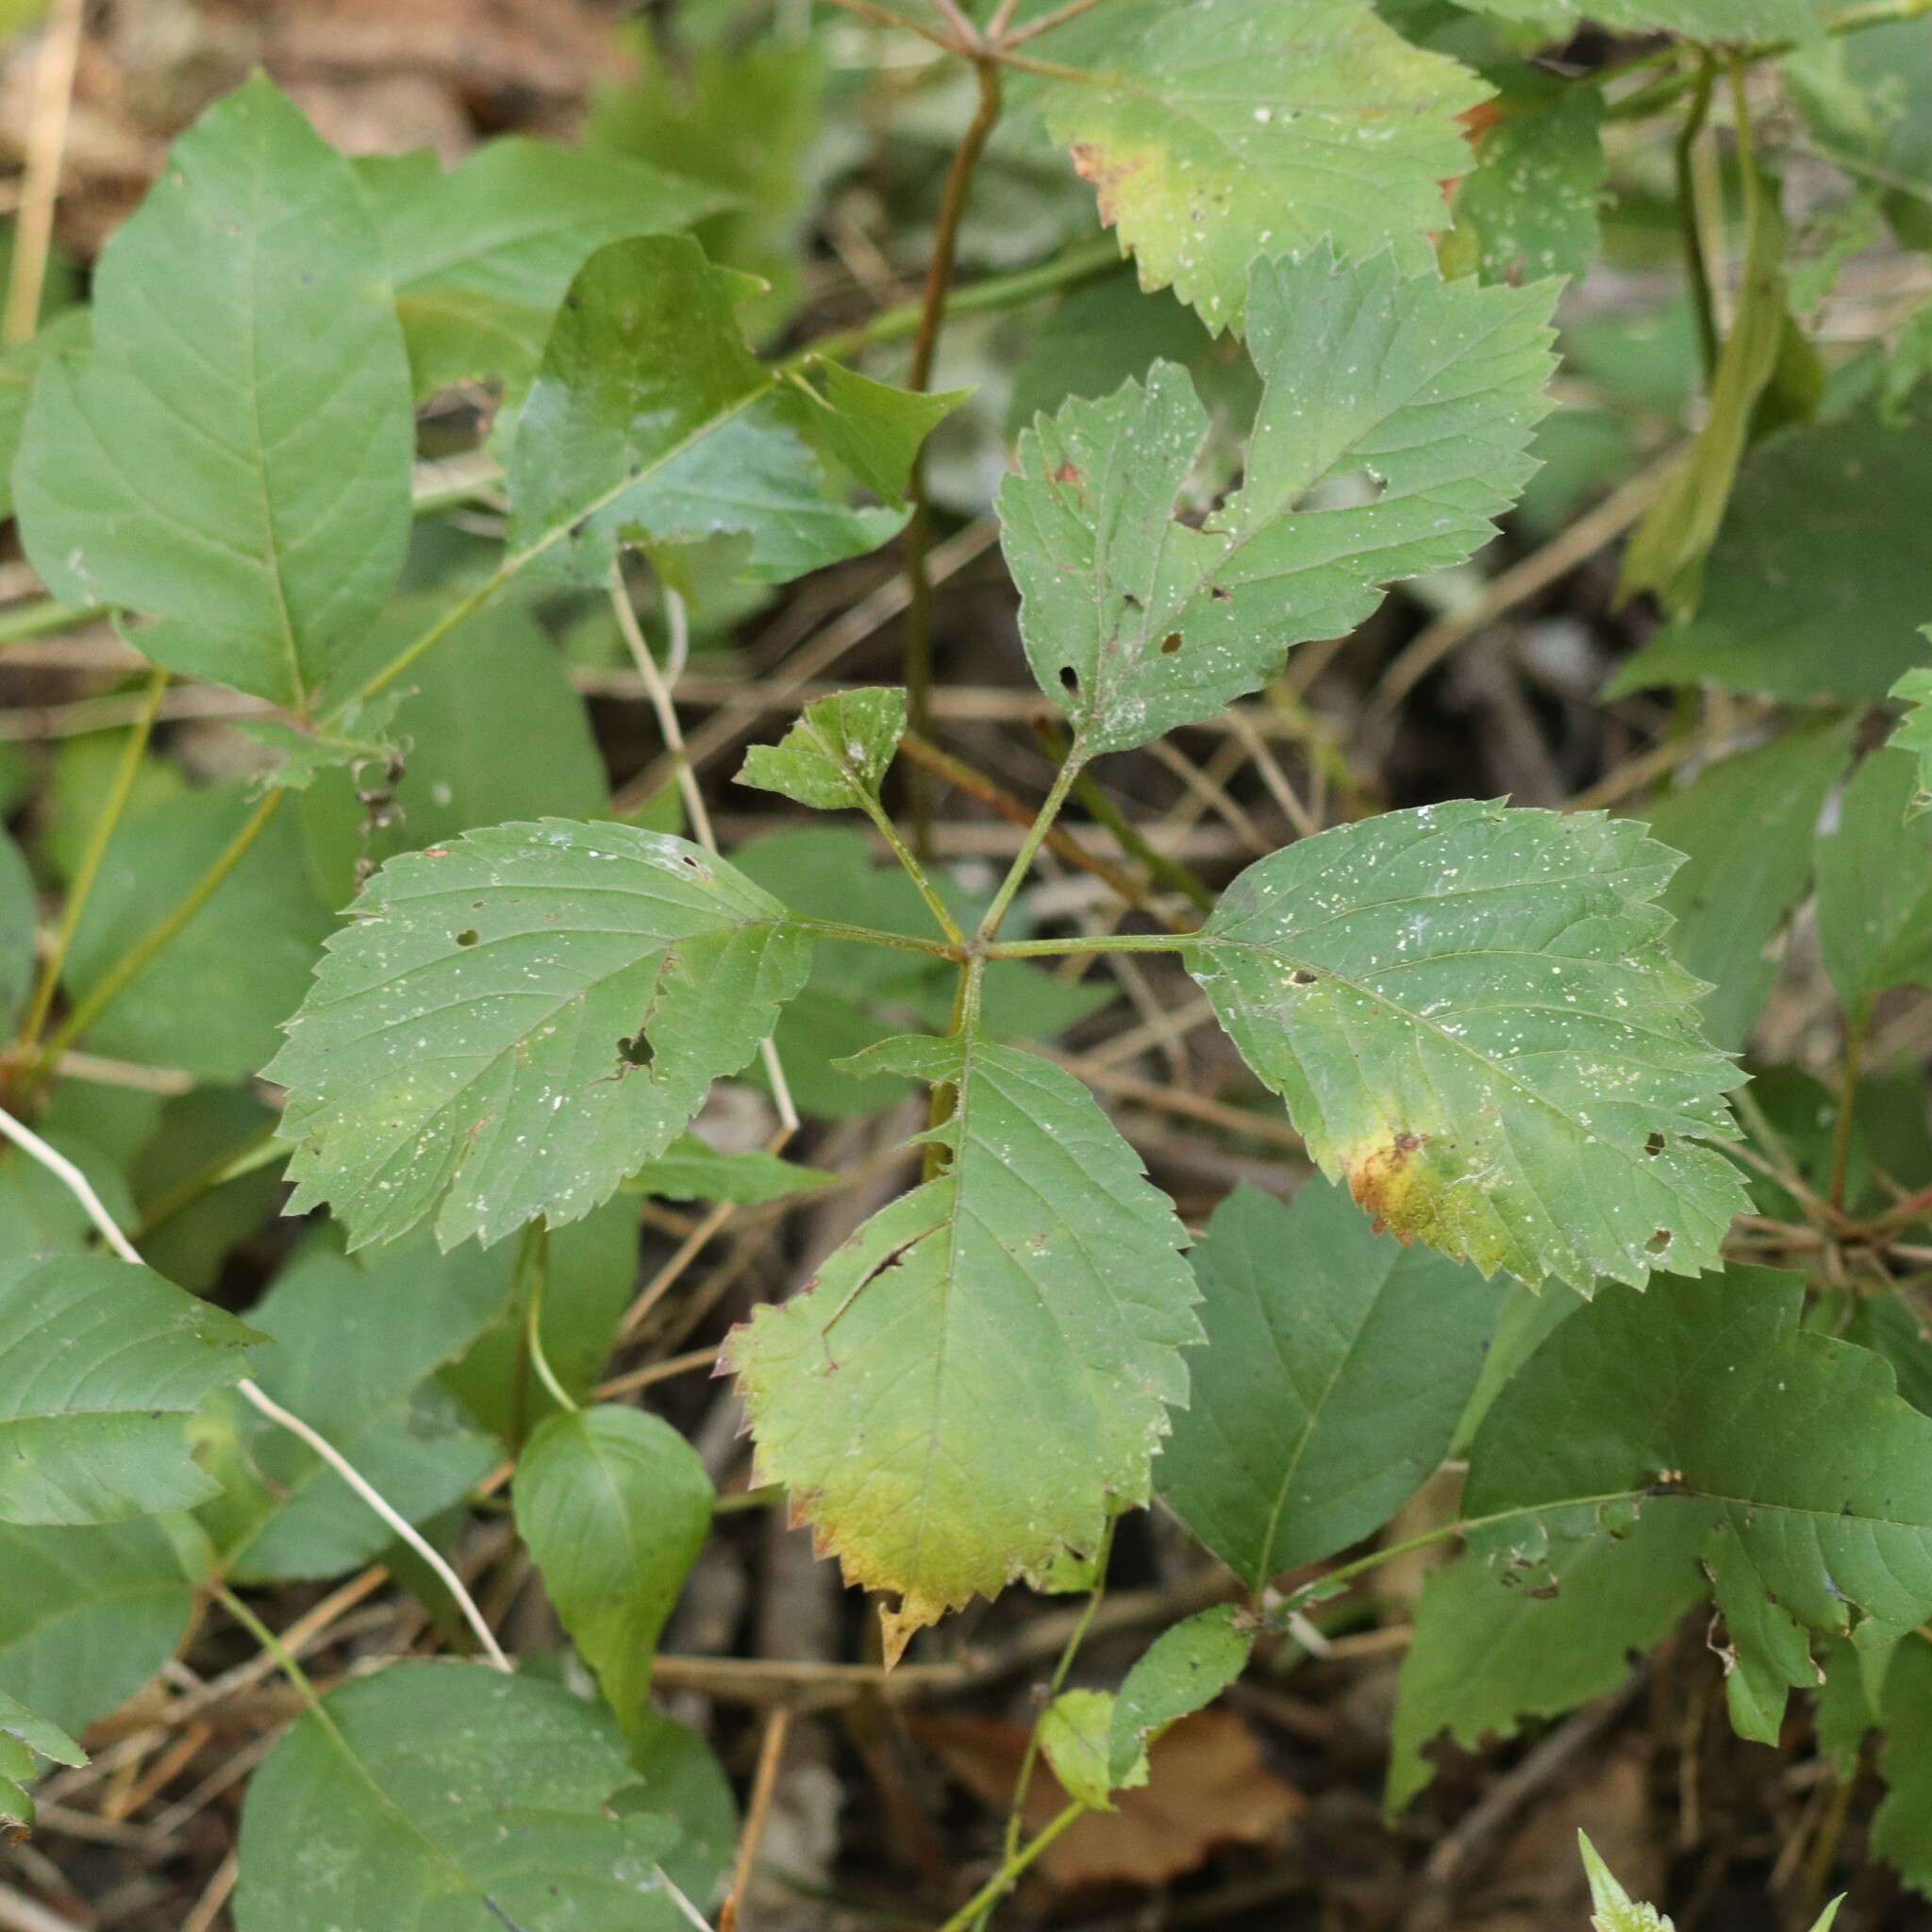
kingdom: Plantae
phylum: Tracheophyta
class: Magnoliopsida
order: Vitales
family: Vitaceae
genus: Parthenocissus
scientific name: Parthenocissus inserta
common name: False virginia-creeper
